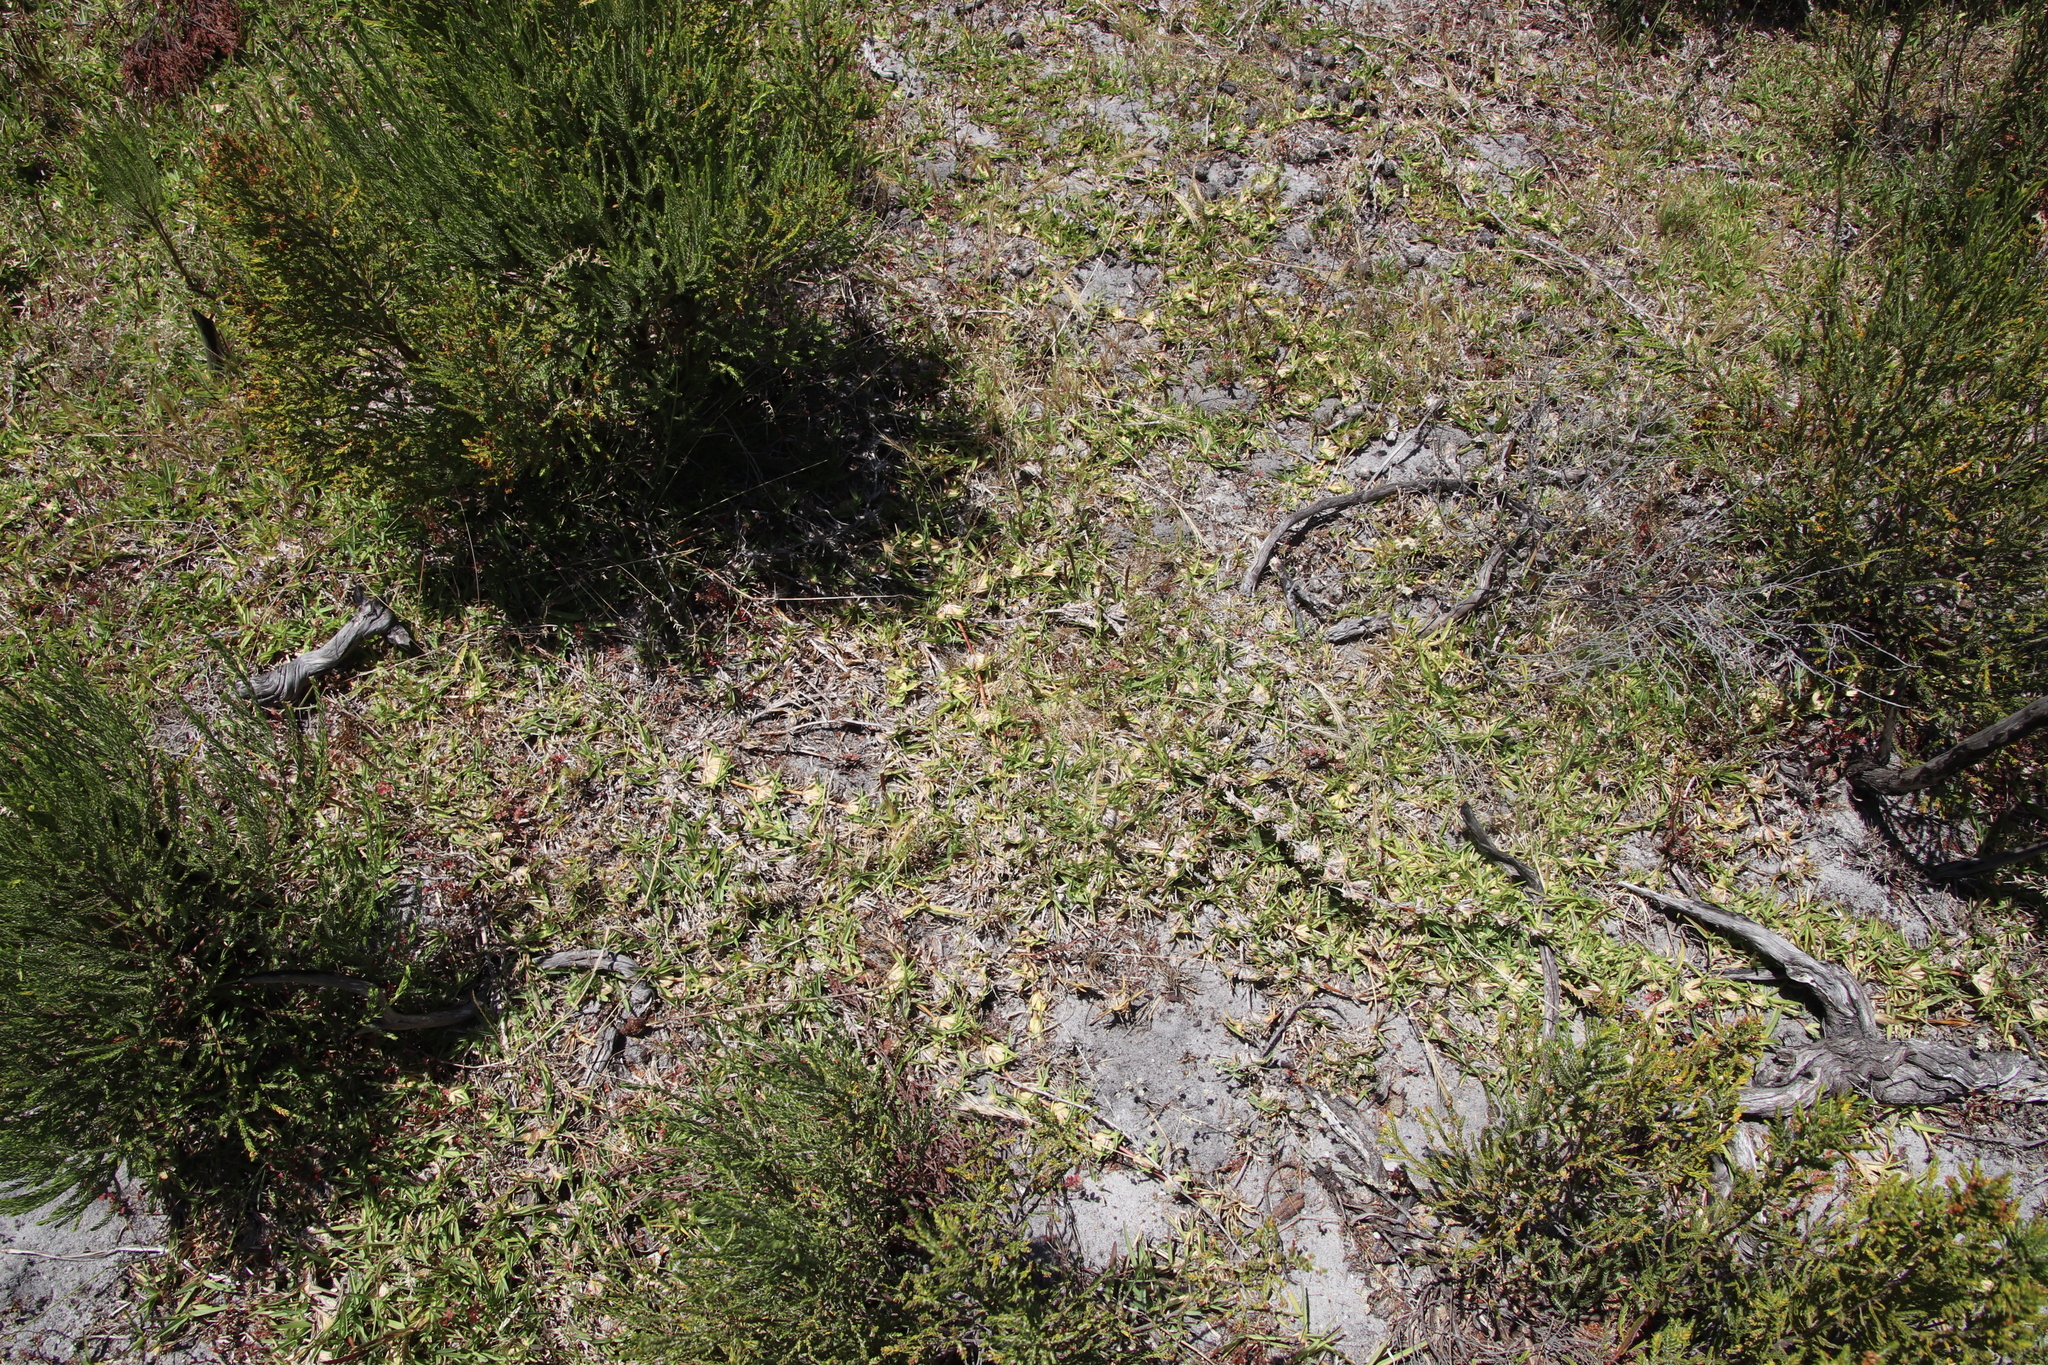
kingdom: Plantae
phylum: Tracheophyta
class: Liliopsida
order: Poales
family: Poaceae
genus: Stenotaphrum
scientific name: Stenotaphrum secundatum
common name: St. augustine grass
